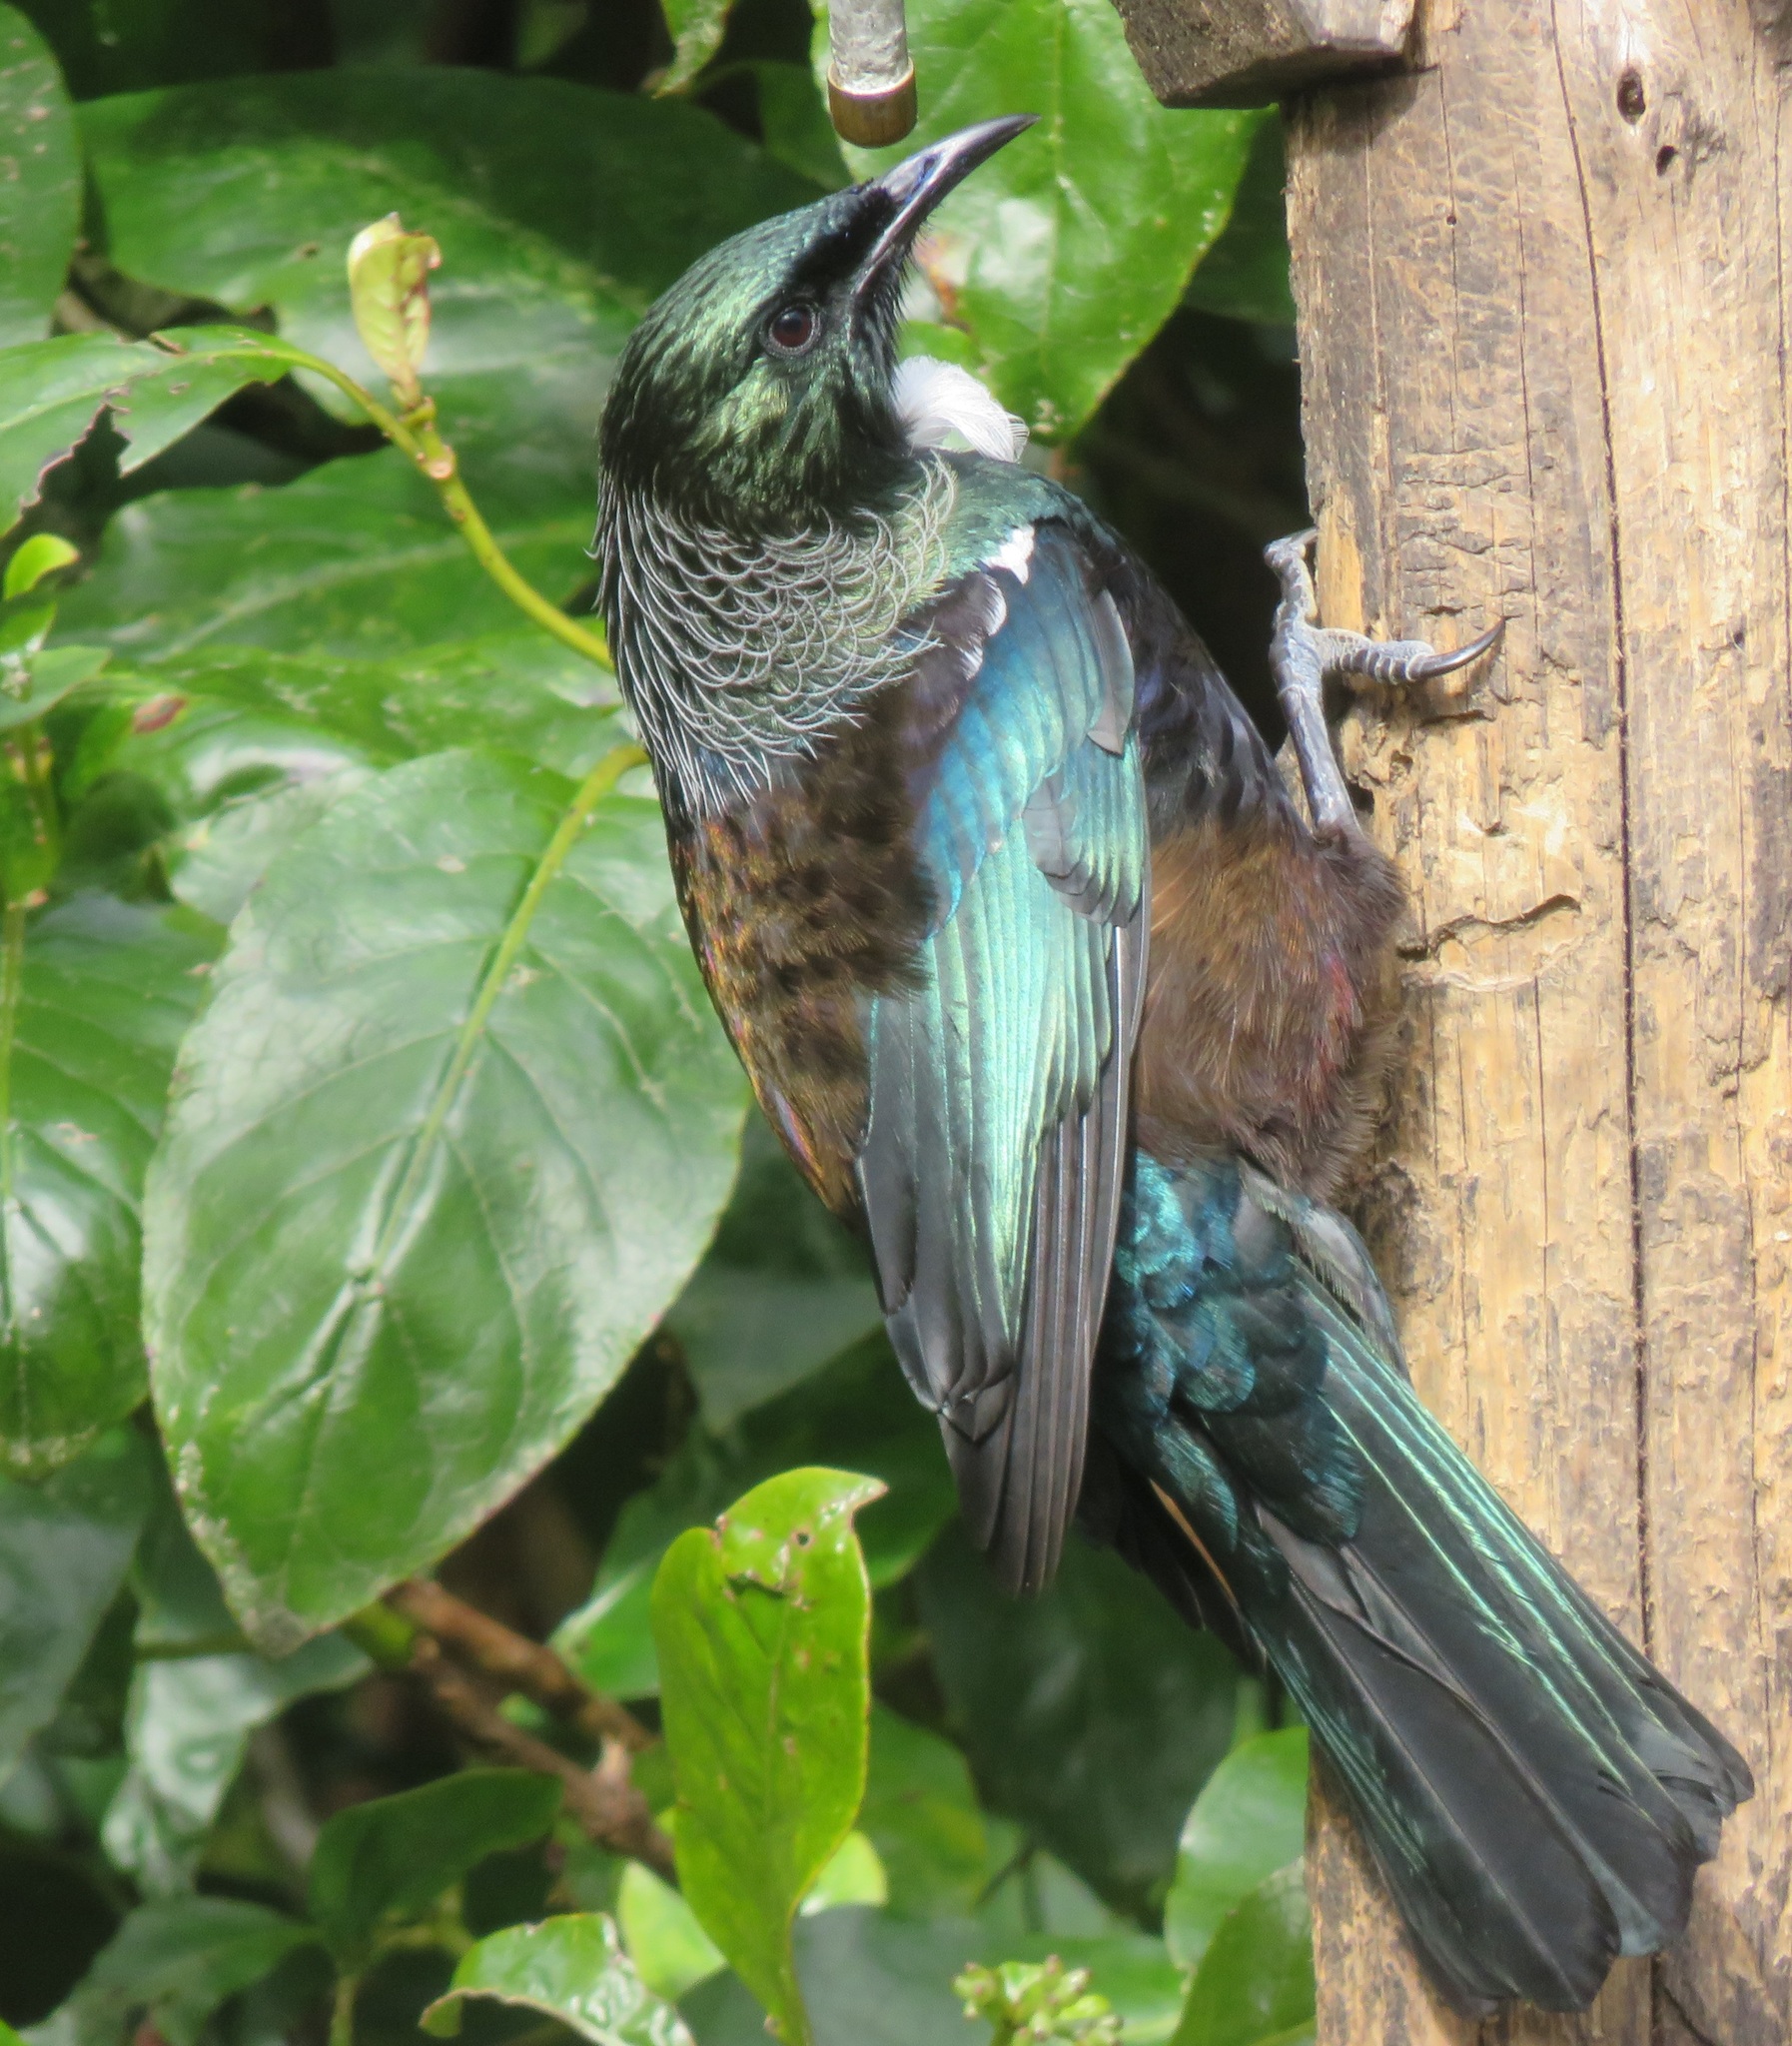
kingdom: Animalia
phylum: Chordata
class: Aves
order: Passeriformes
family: Meliphagidae
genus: Prosthemadera
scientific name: Prosthemadera novaeseelandiae
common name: Tui
